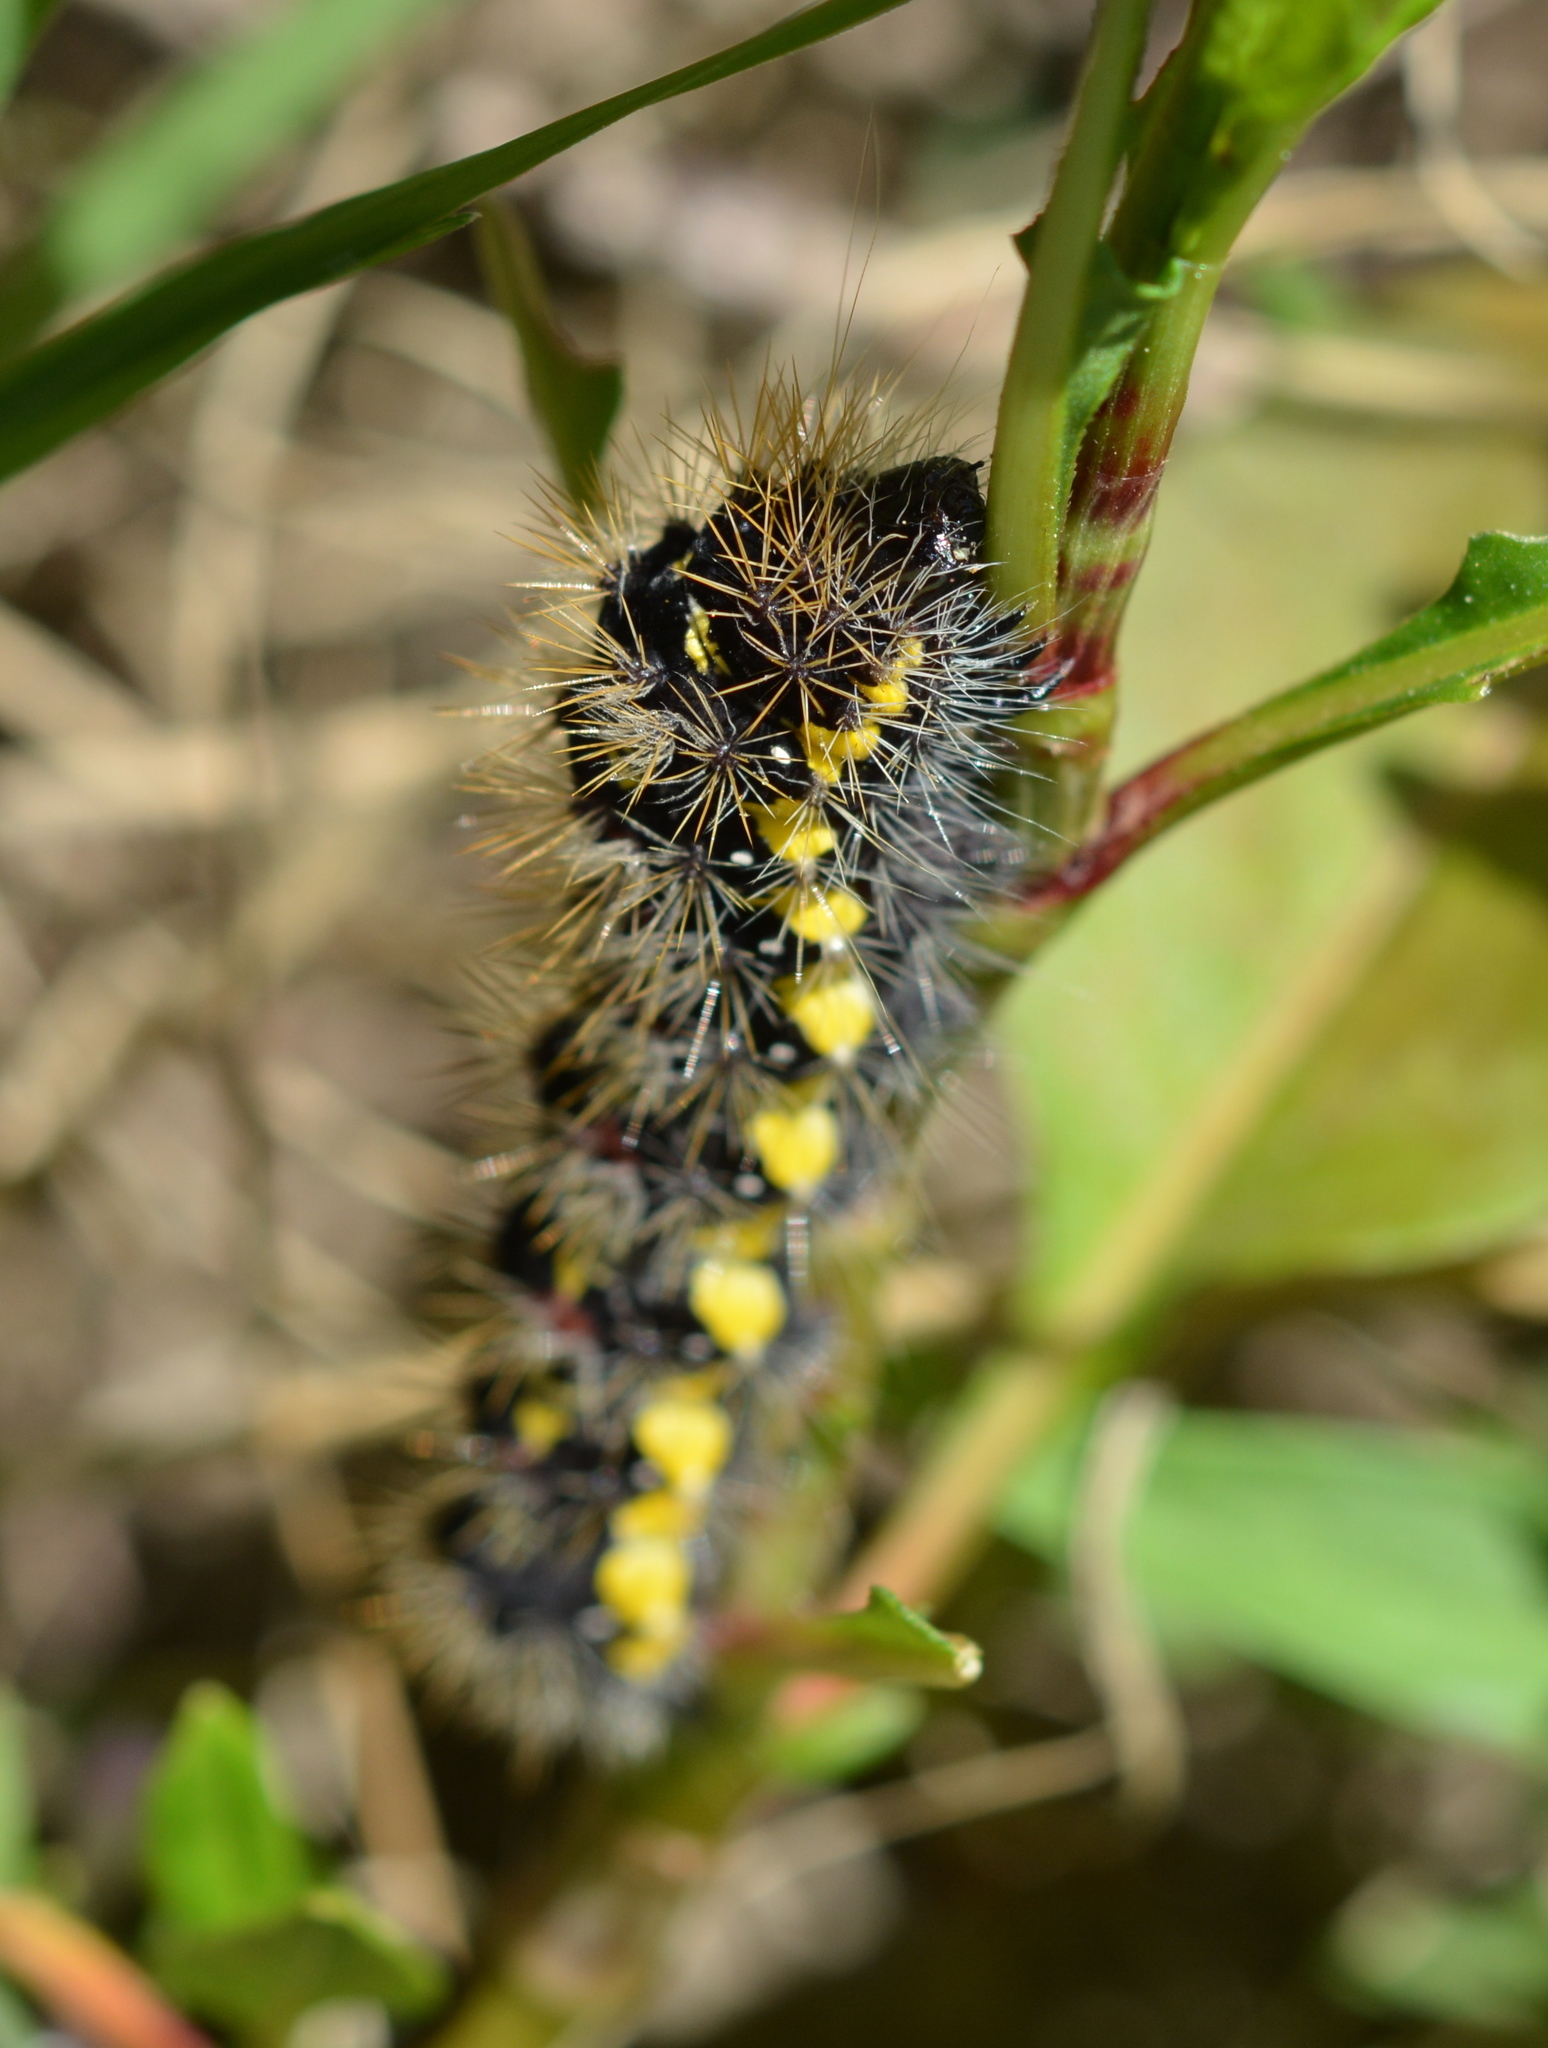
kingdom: Animalia
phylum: Arthropoda
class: Insecta
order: Lepidoptera
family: Noctuidae
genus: Acronicta
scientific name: Acronicta oblinita
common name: Smeared dagger
